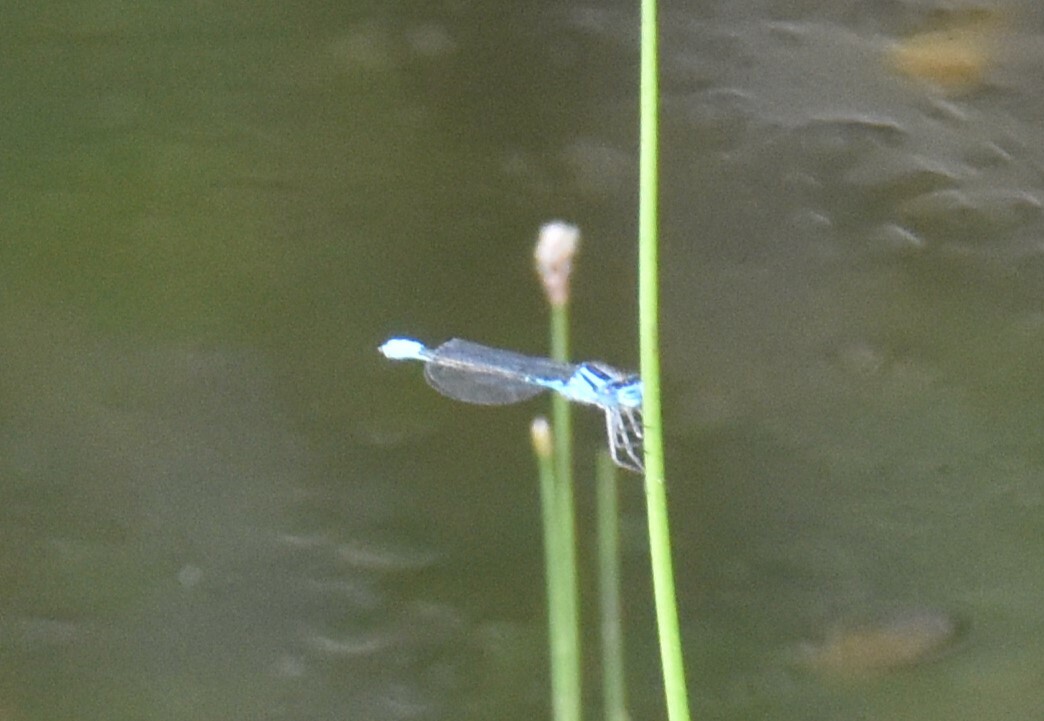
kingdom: Animalia
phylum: Arthropoda
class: Insecta
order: Odonata
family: Coenagrionidae
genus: Enallagma
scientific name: Enallagma aspersum
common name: Azure bluet
